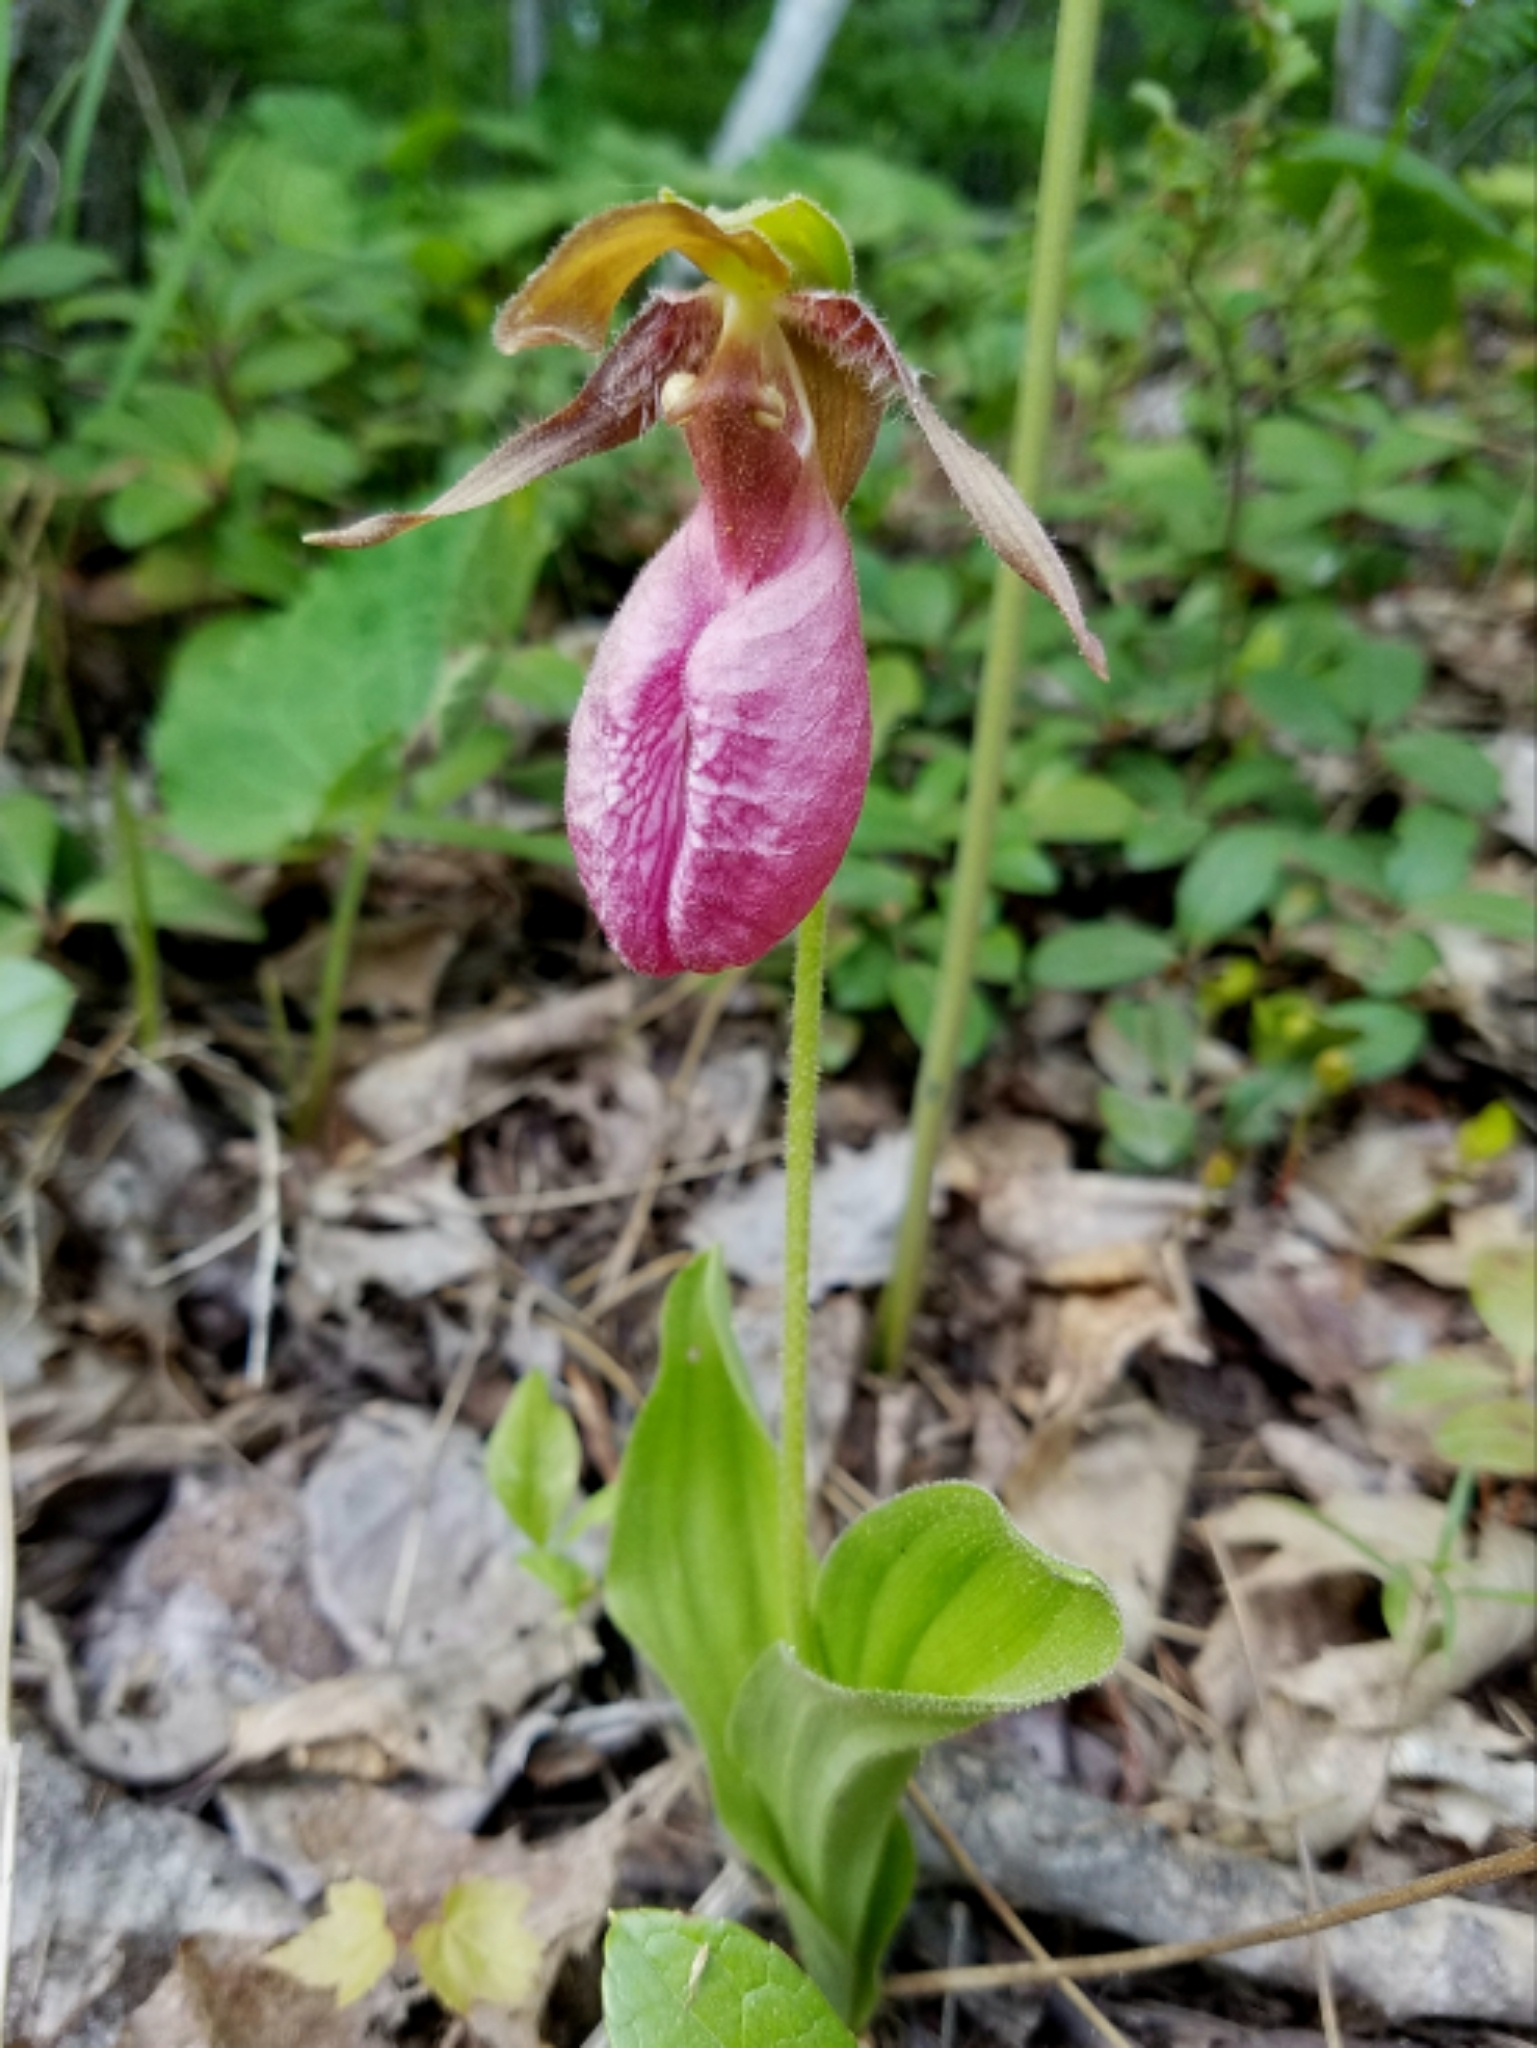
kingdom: Plantae
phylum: Tracheophyta
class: Liliopsida
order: Asparagales
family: Orchidaceae
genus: Cypripedium
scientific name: Cypripedium acaule
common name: Pink lady's-slipper
